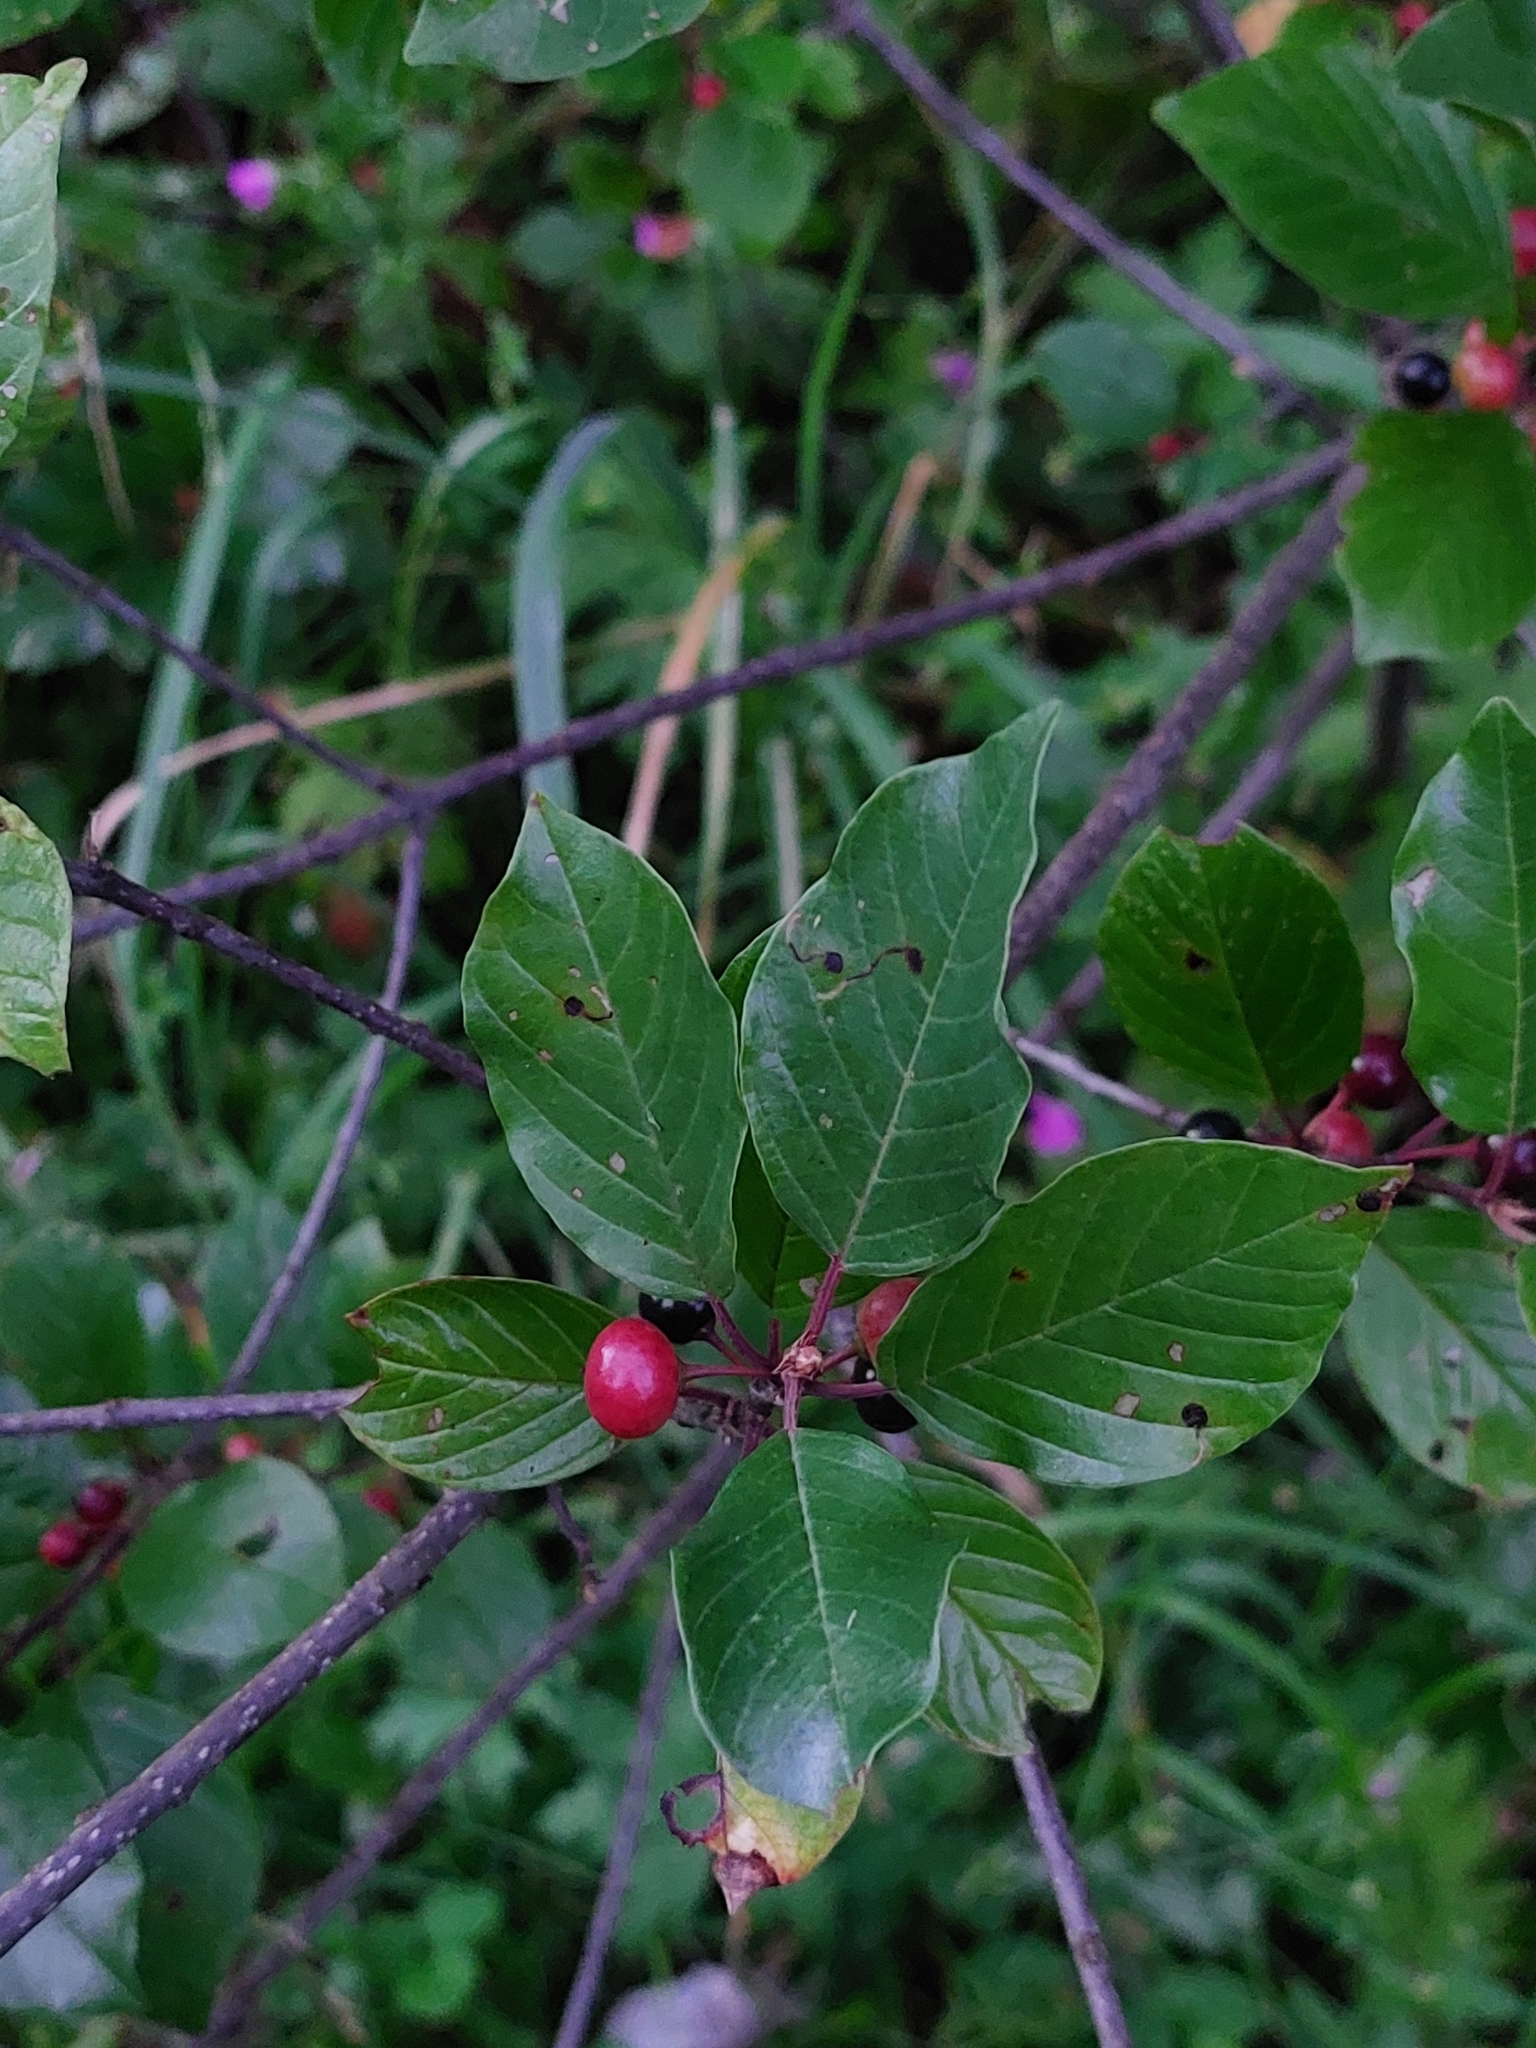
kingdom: Plantae
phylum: Tracheophyta
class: Magnoliopsida
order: Rosales
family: Rhamnaceae
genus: Frangula
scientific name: Frangula alnus
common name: Alder buckthorn
